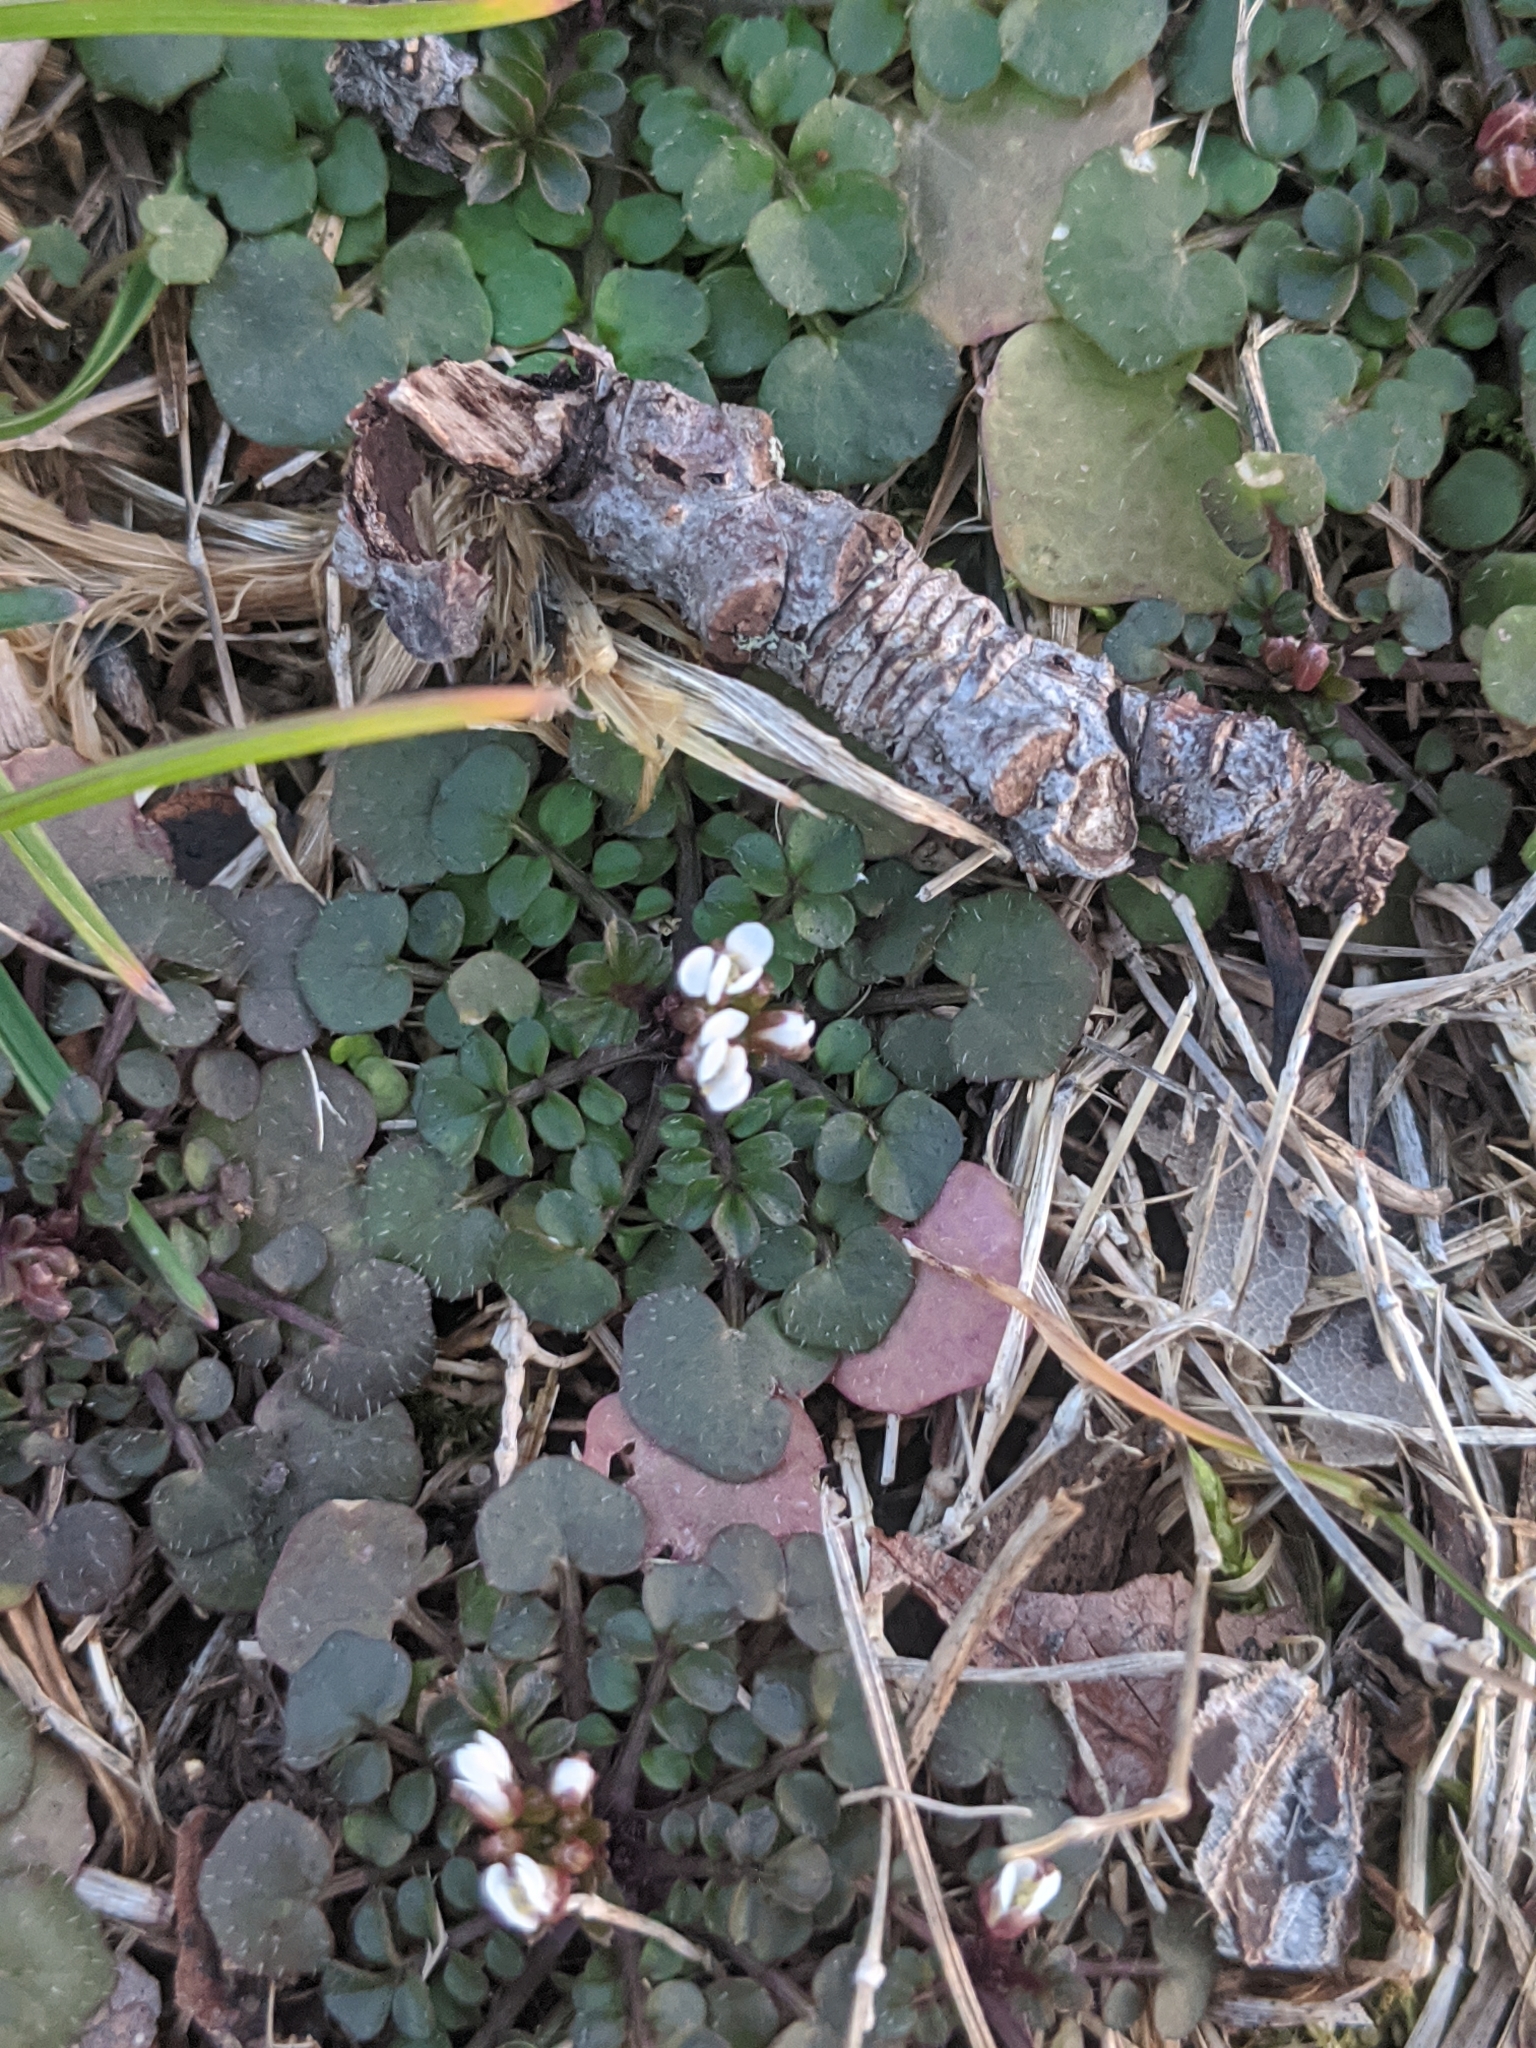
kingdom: Plantae
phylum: Tracheophyta
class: Magnoliopsida
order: Brassicales
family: Brassicaceae
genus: Cardamine
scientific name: Cardamine hirsuta
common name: Hairy bittercress
